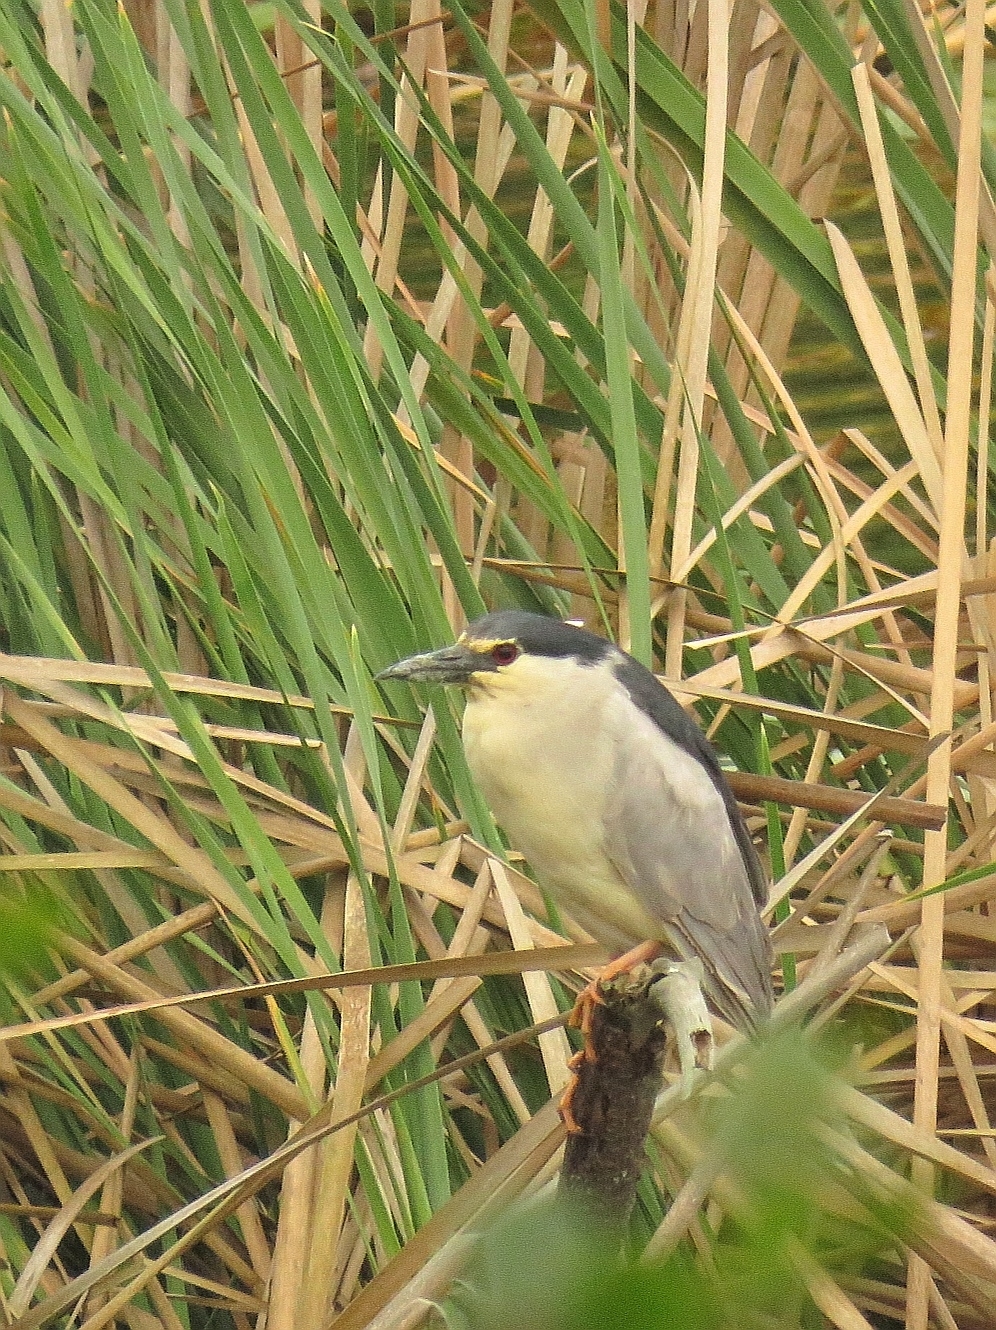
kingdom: Animalia
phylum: Chordata
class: Aves
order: Pelecaniformes
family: Ardeidae
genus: Nycticorax
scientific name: Nycticorax nycticorax
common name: Black-crowned night heron
